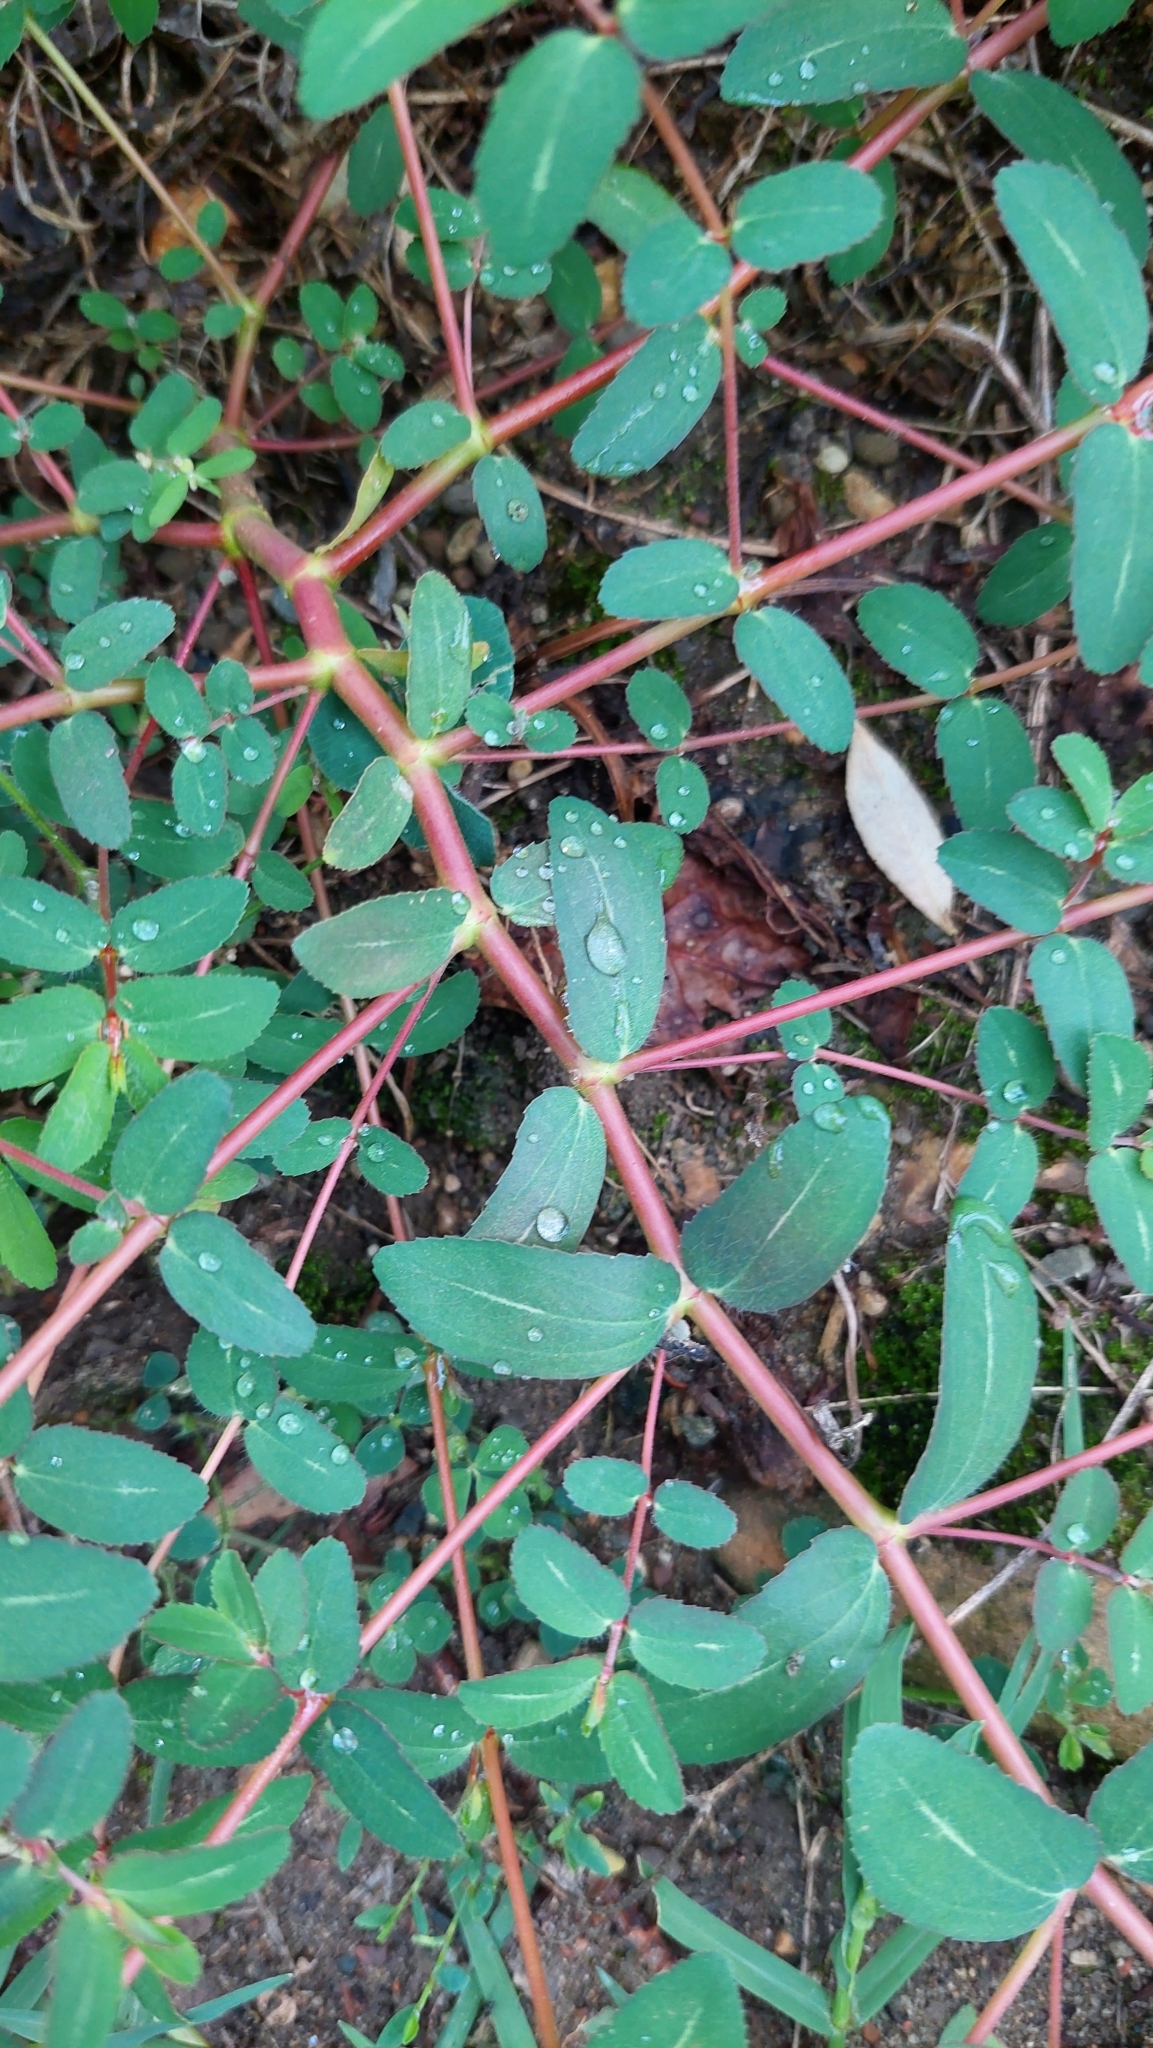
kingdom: Plantae
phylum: Tracheophyta
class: Magnoliopsida
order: Malpighiales
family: Euphorbiaceae
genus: Euphorbia
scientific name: Euphorbia nutans
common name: Eyebane
